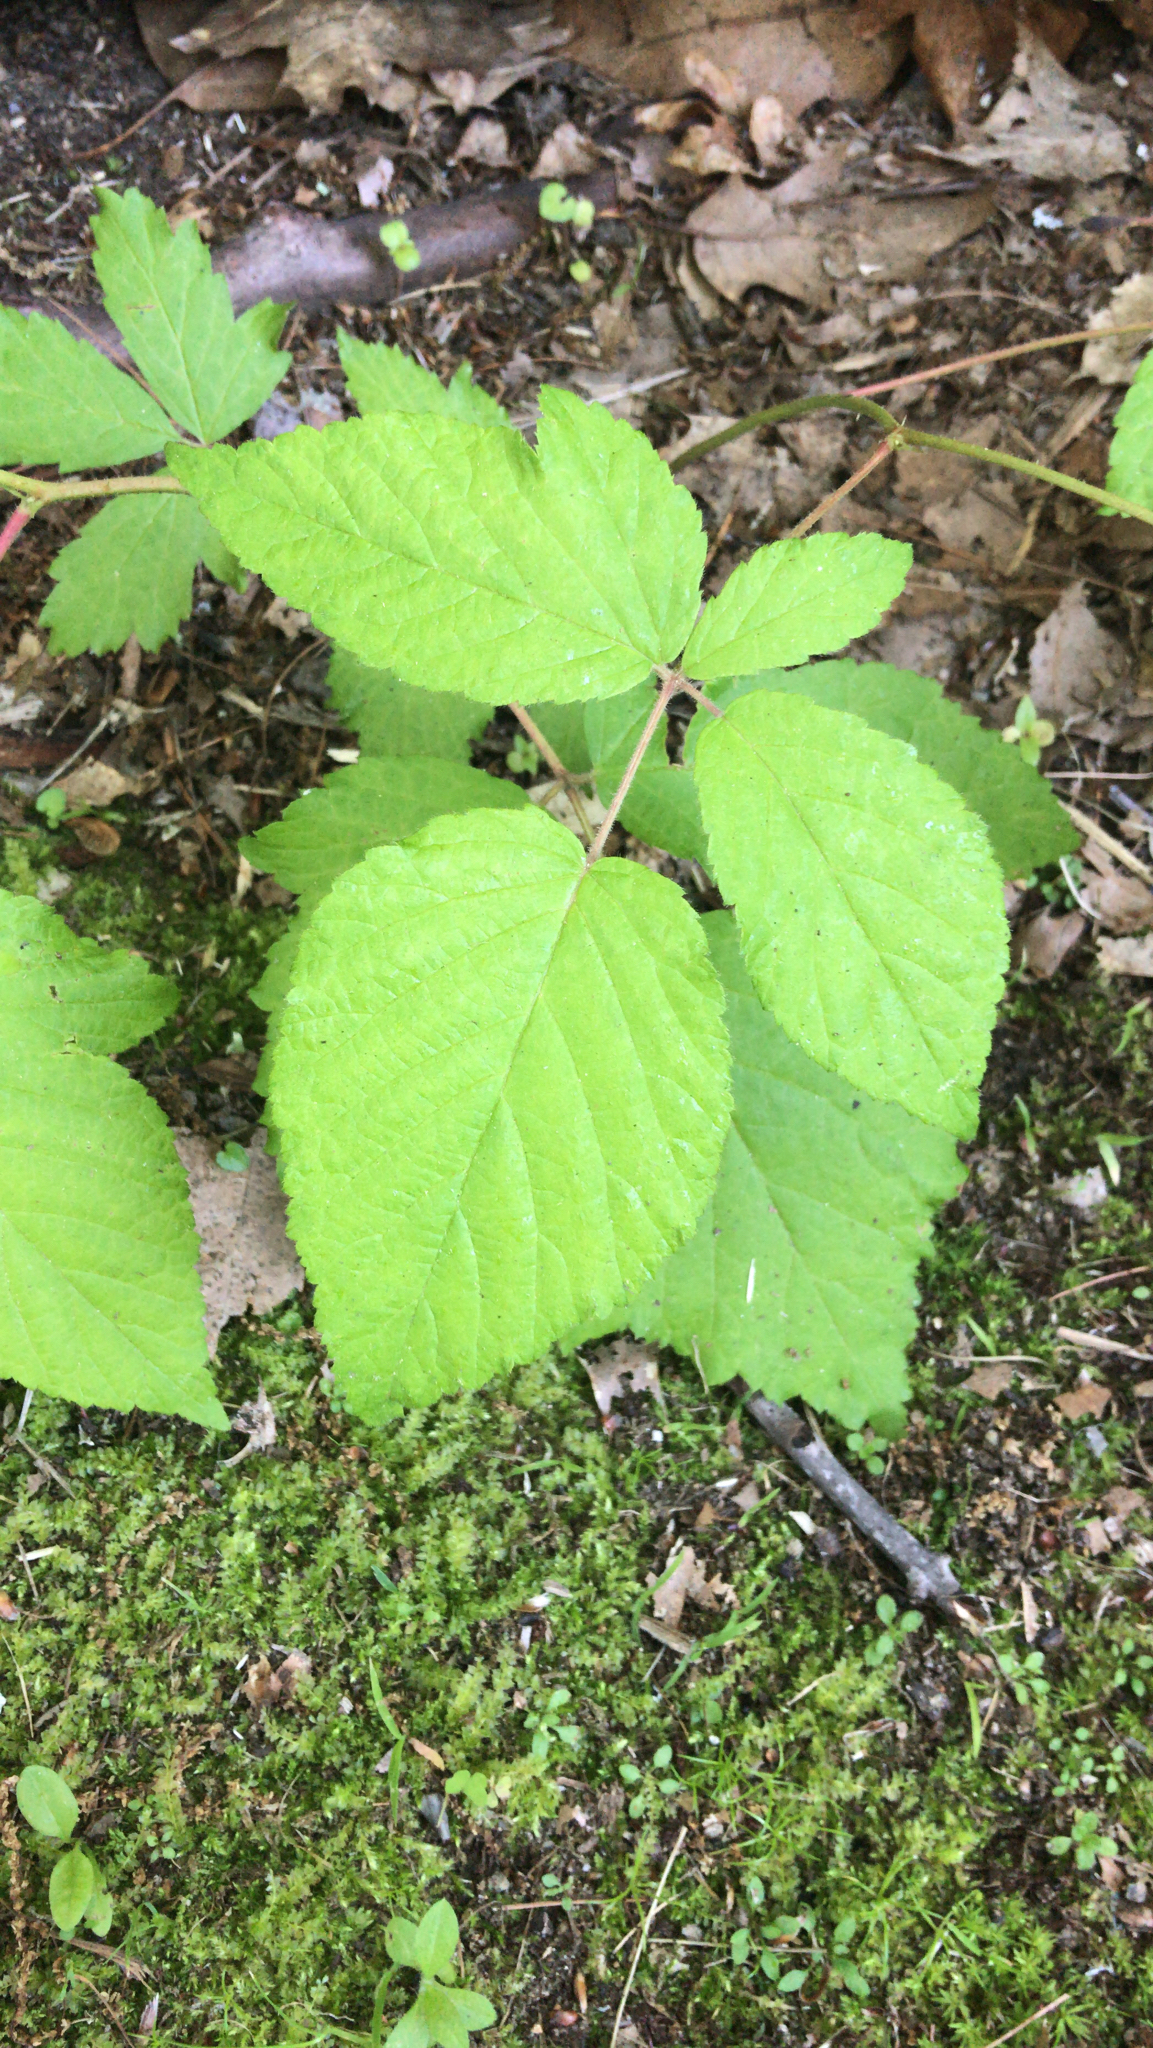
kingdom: Plantae
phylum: Tracheophyta
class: Magnoliopsida
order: Rosales
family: Rosaceae
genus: Rubus
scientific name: Rubus phoenicolasius
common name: Japanese wineberry
